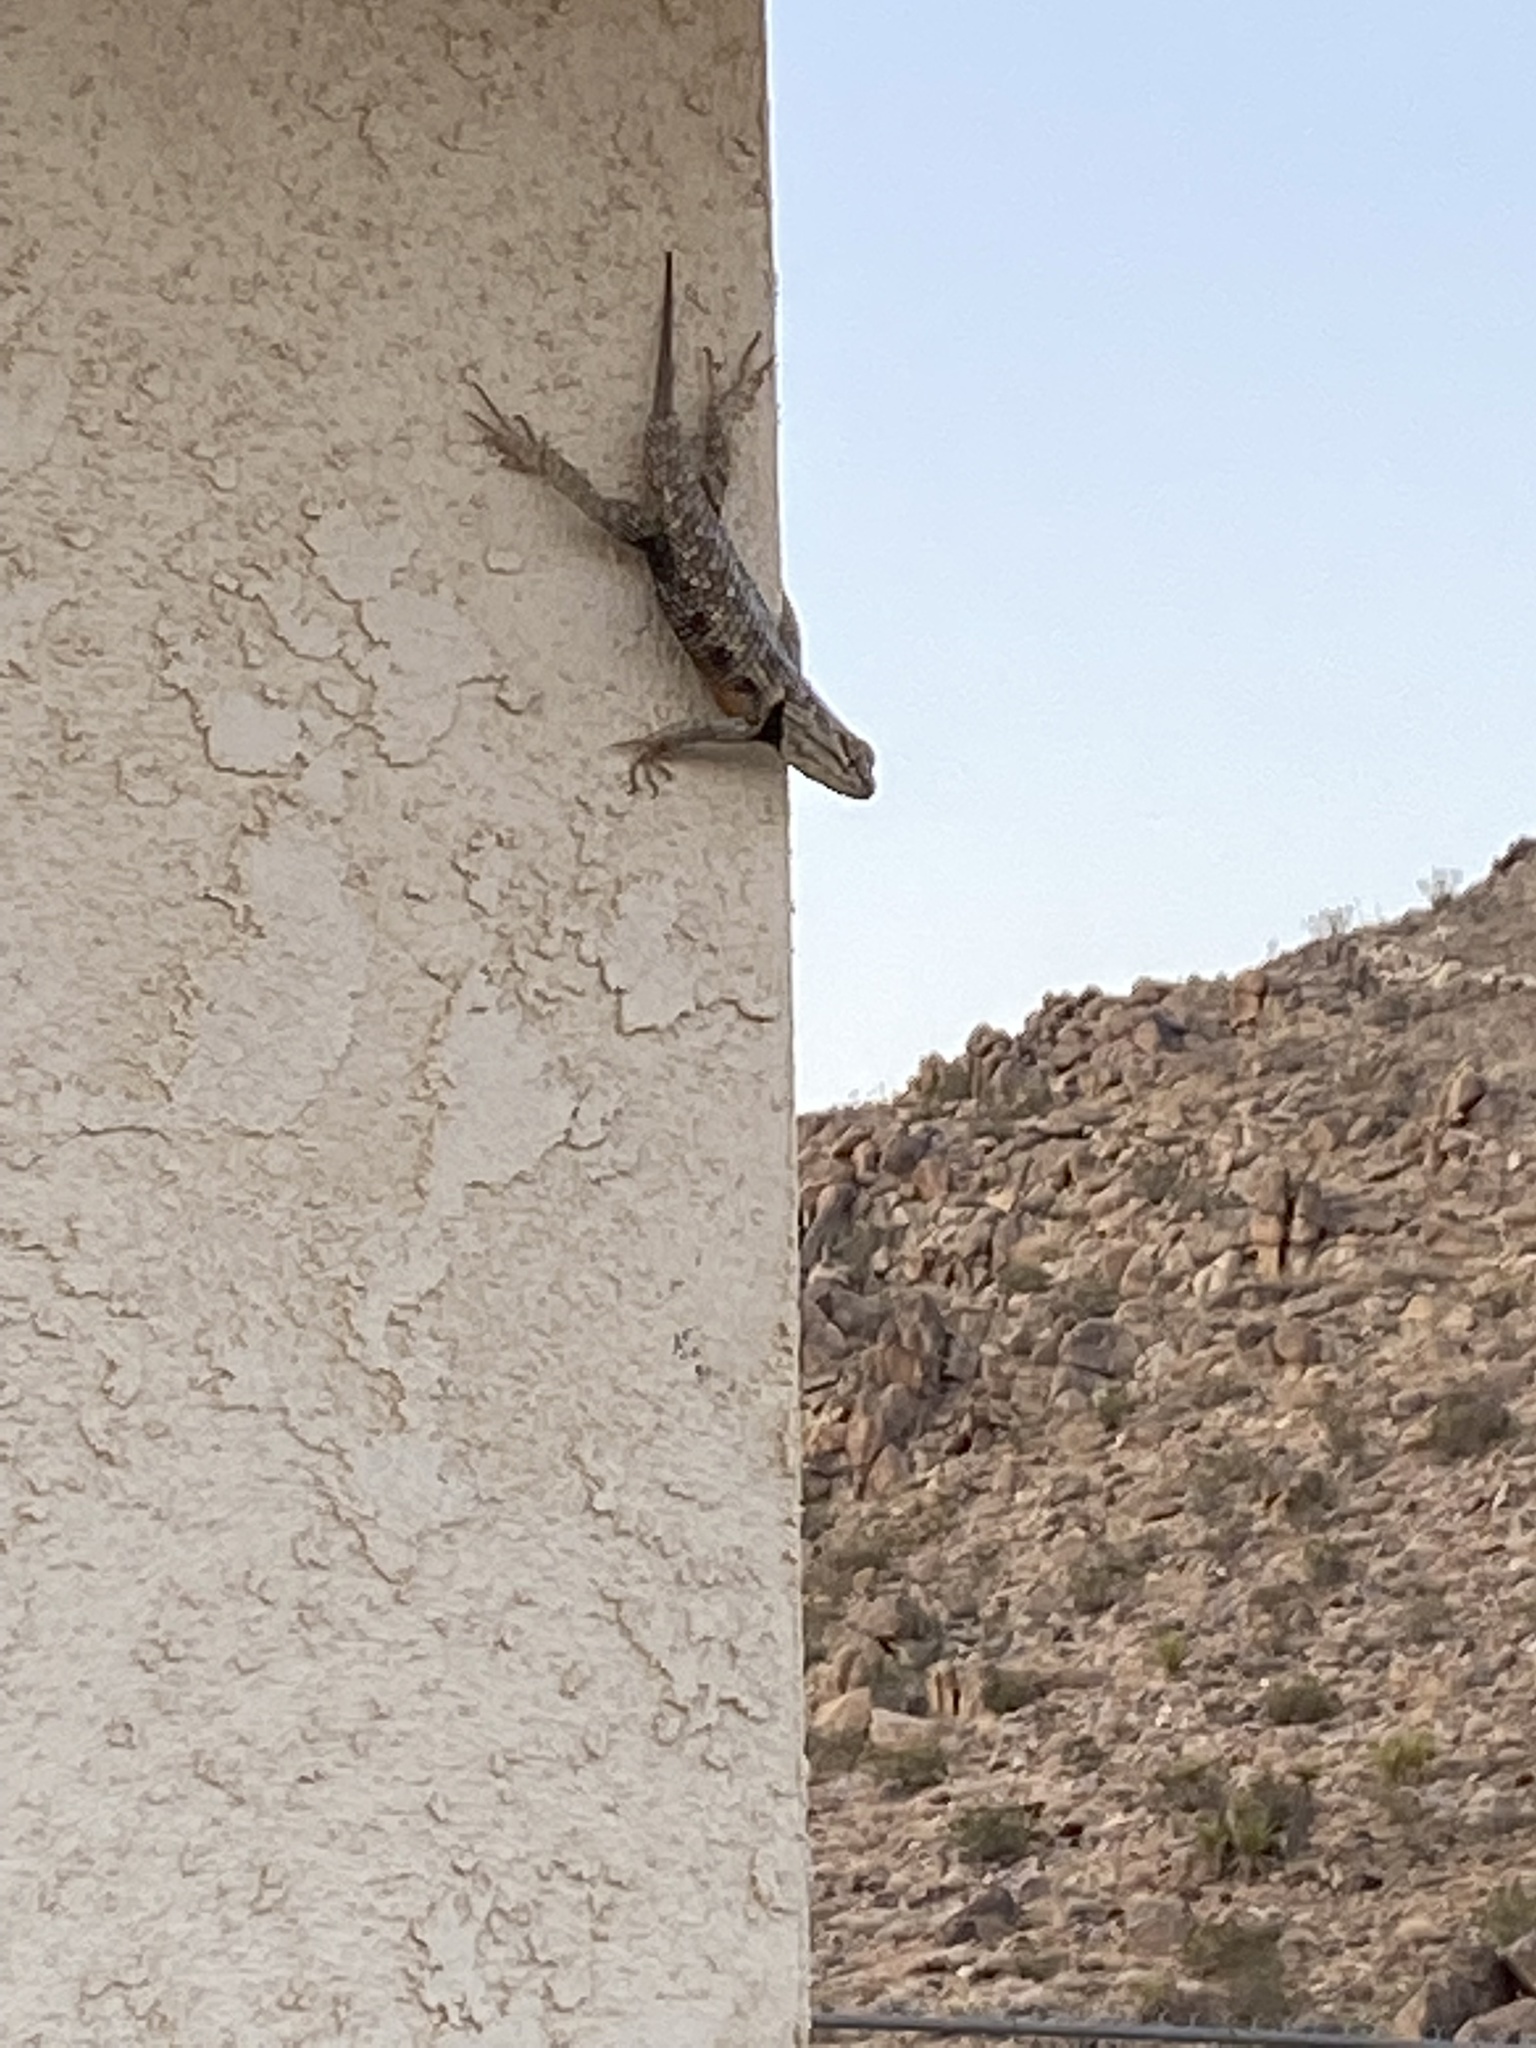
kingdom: Animalia
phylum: Chordata
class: Squamata
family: Phrynosomatidae
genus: Sceloporus
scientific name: Sceloporus magister
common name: Desert spiny lizard
